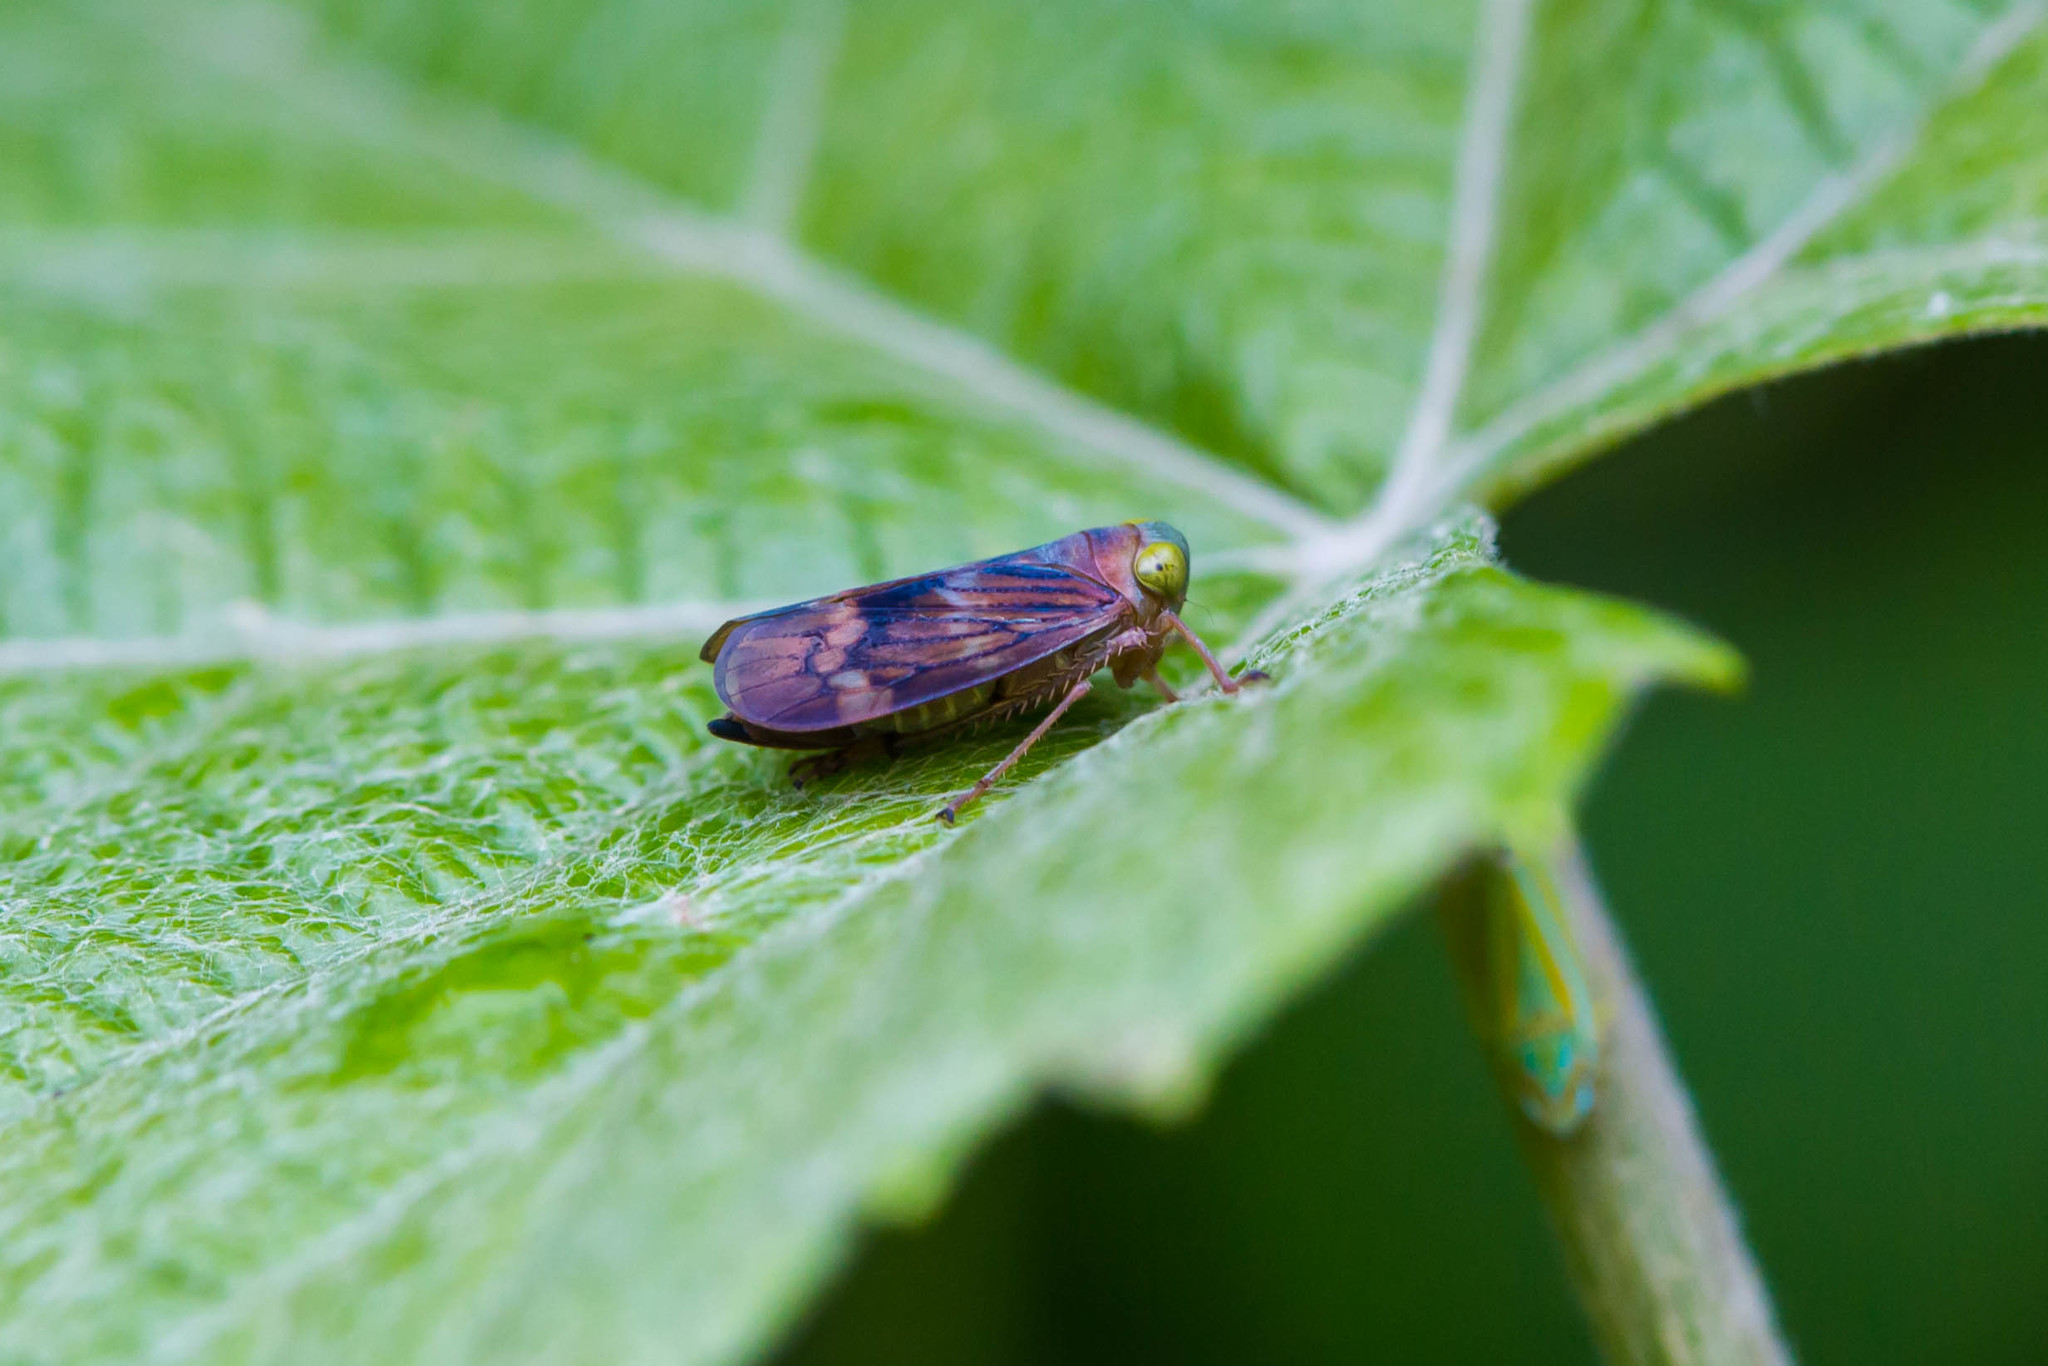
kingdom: Animalia
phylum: Arthropoda
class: Insecta
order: Hemiptera
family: Cicadellidae
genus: Jikradia
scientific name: Jikradia olitoria
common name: Coppery leafhopper
